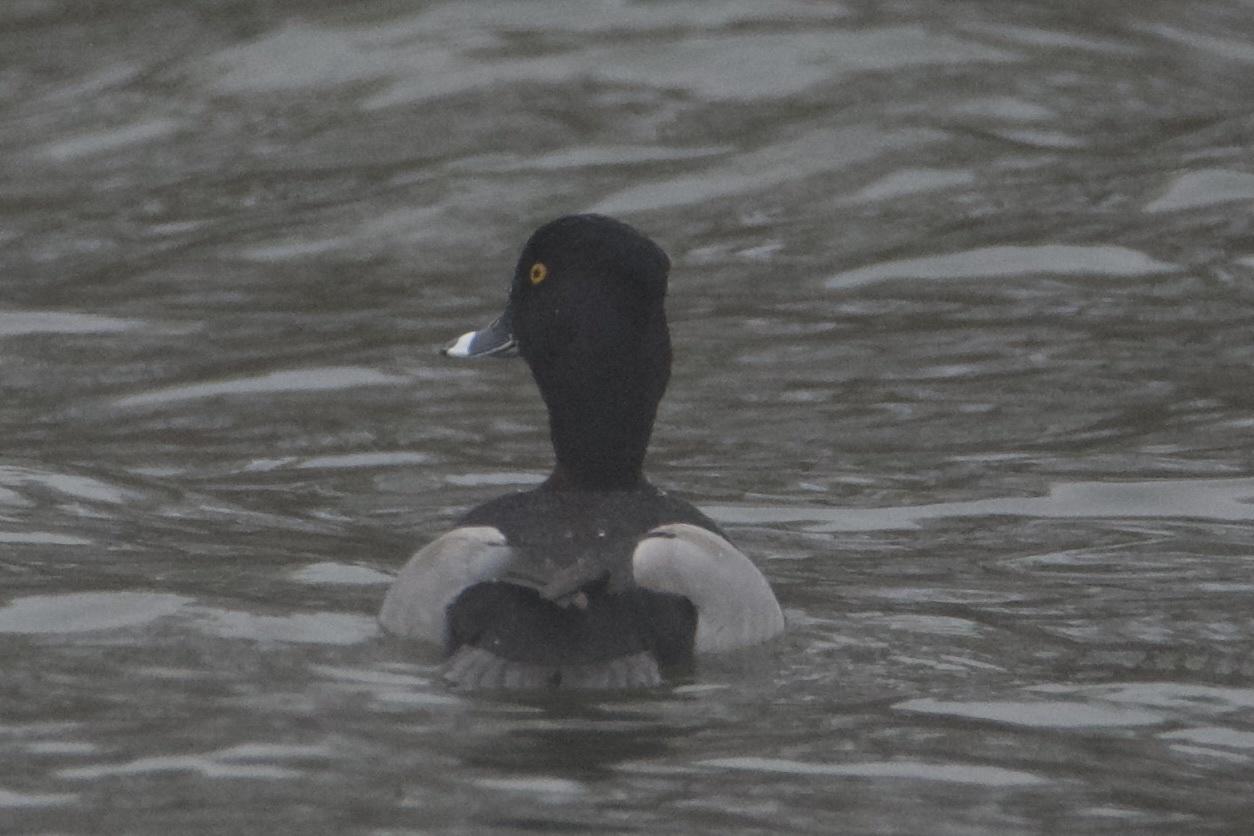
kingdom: Animalia
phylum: Chordata
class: Aves
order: Anseriformes
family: Anatidae
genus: Aythya
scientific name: Aythya collaris
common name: Ring-necked duck
